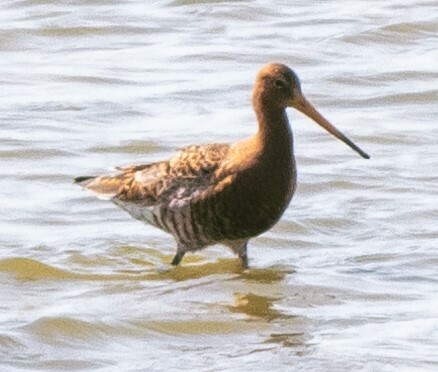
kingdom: Animalia
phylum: Chordata
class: Aves
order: Charadriiformes
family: Scolopacidae
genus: Limosa
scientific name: Limosa limosa
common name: Black-tailed godwit
